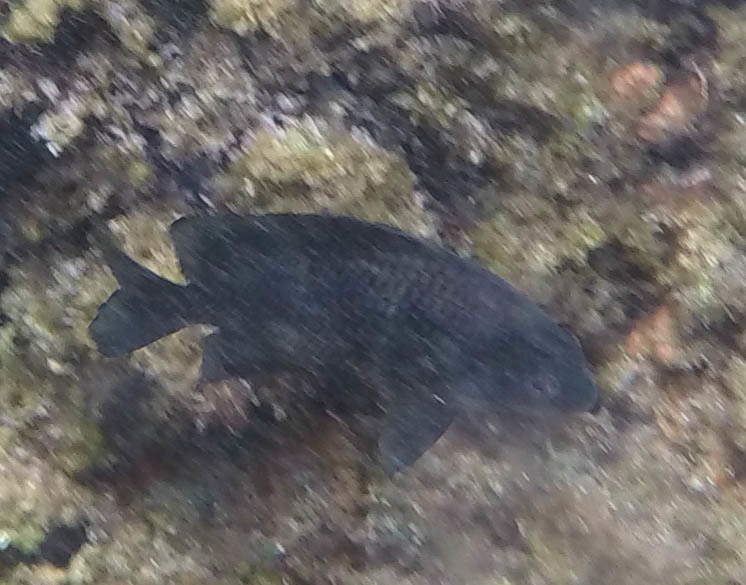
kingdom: Animalia
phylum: Chordata
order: Perciformes
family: Pomacentridae
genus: Plectroglyphidodon
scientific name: Plectroglyphidodon sindonis
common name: Hawaiian rock damsel
